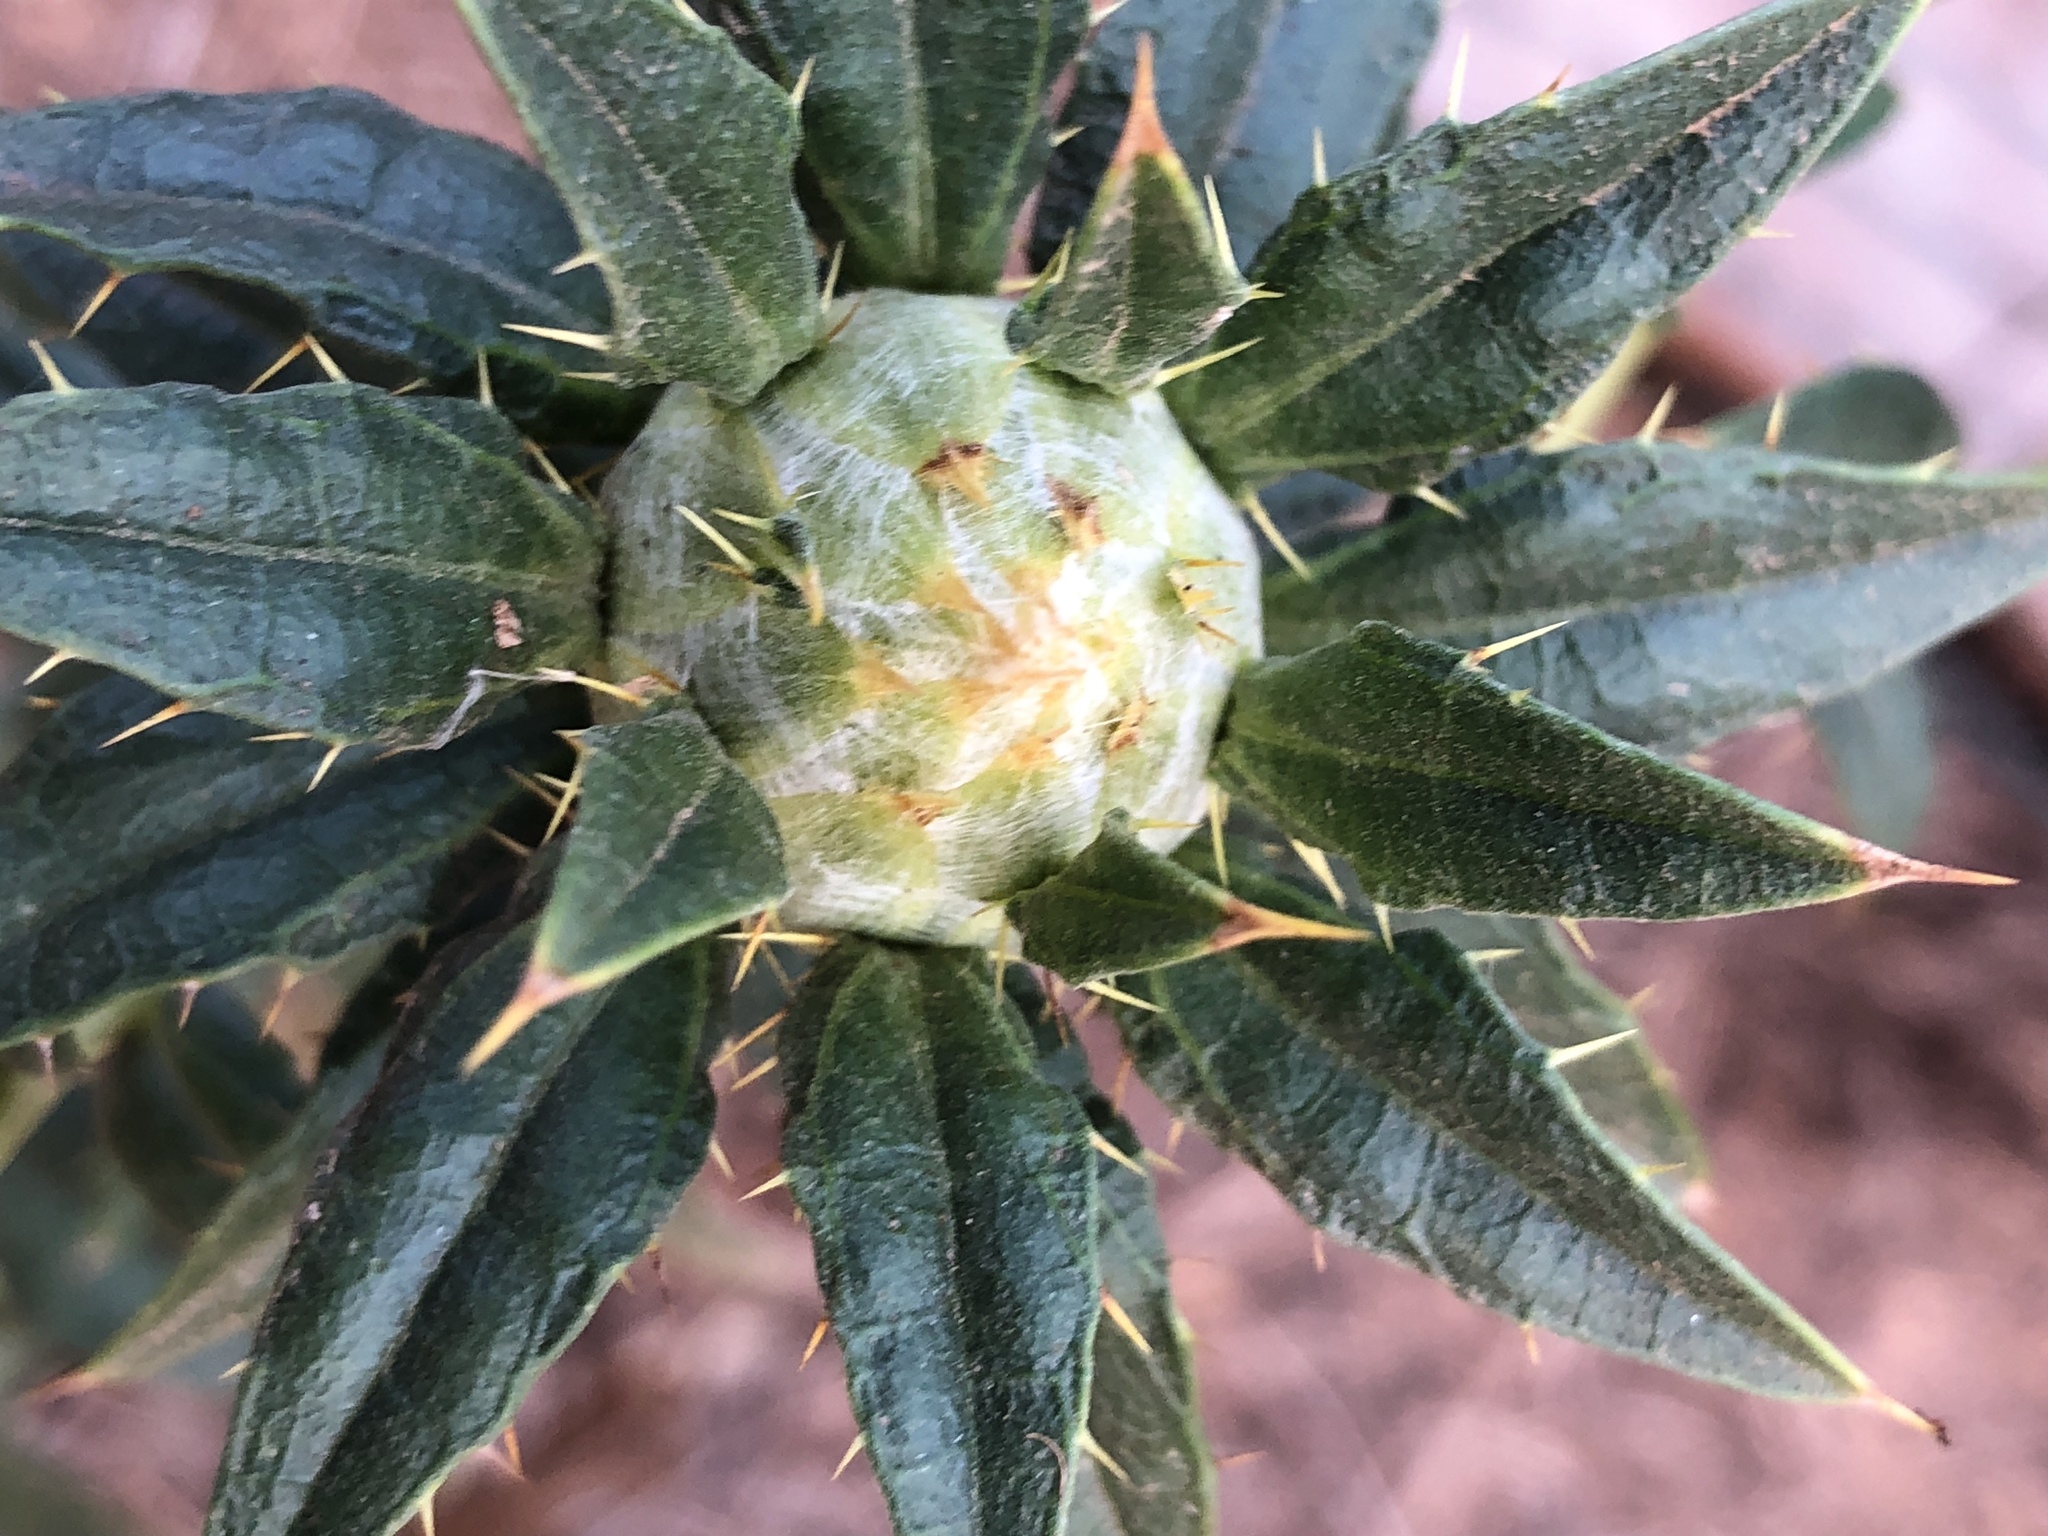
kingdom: Plantae
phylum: Tracheophyta
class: Magnoliopsida
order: Asterales
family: Asteraceae
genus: Carthamus
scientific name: Carthamus tinctorius
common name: Safflower
